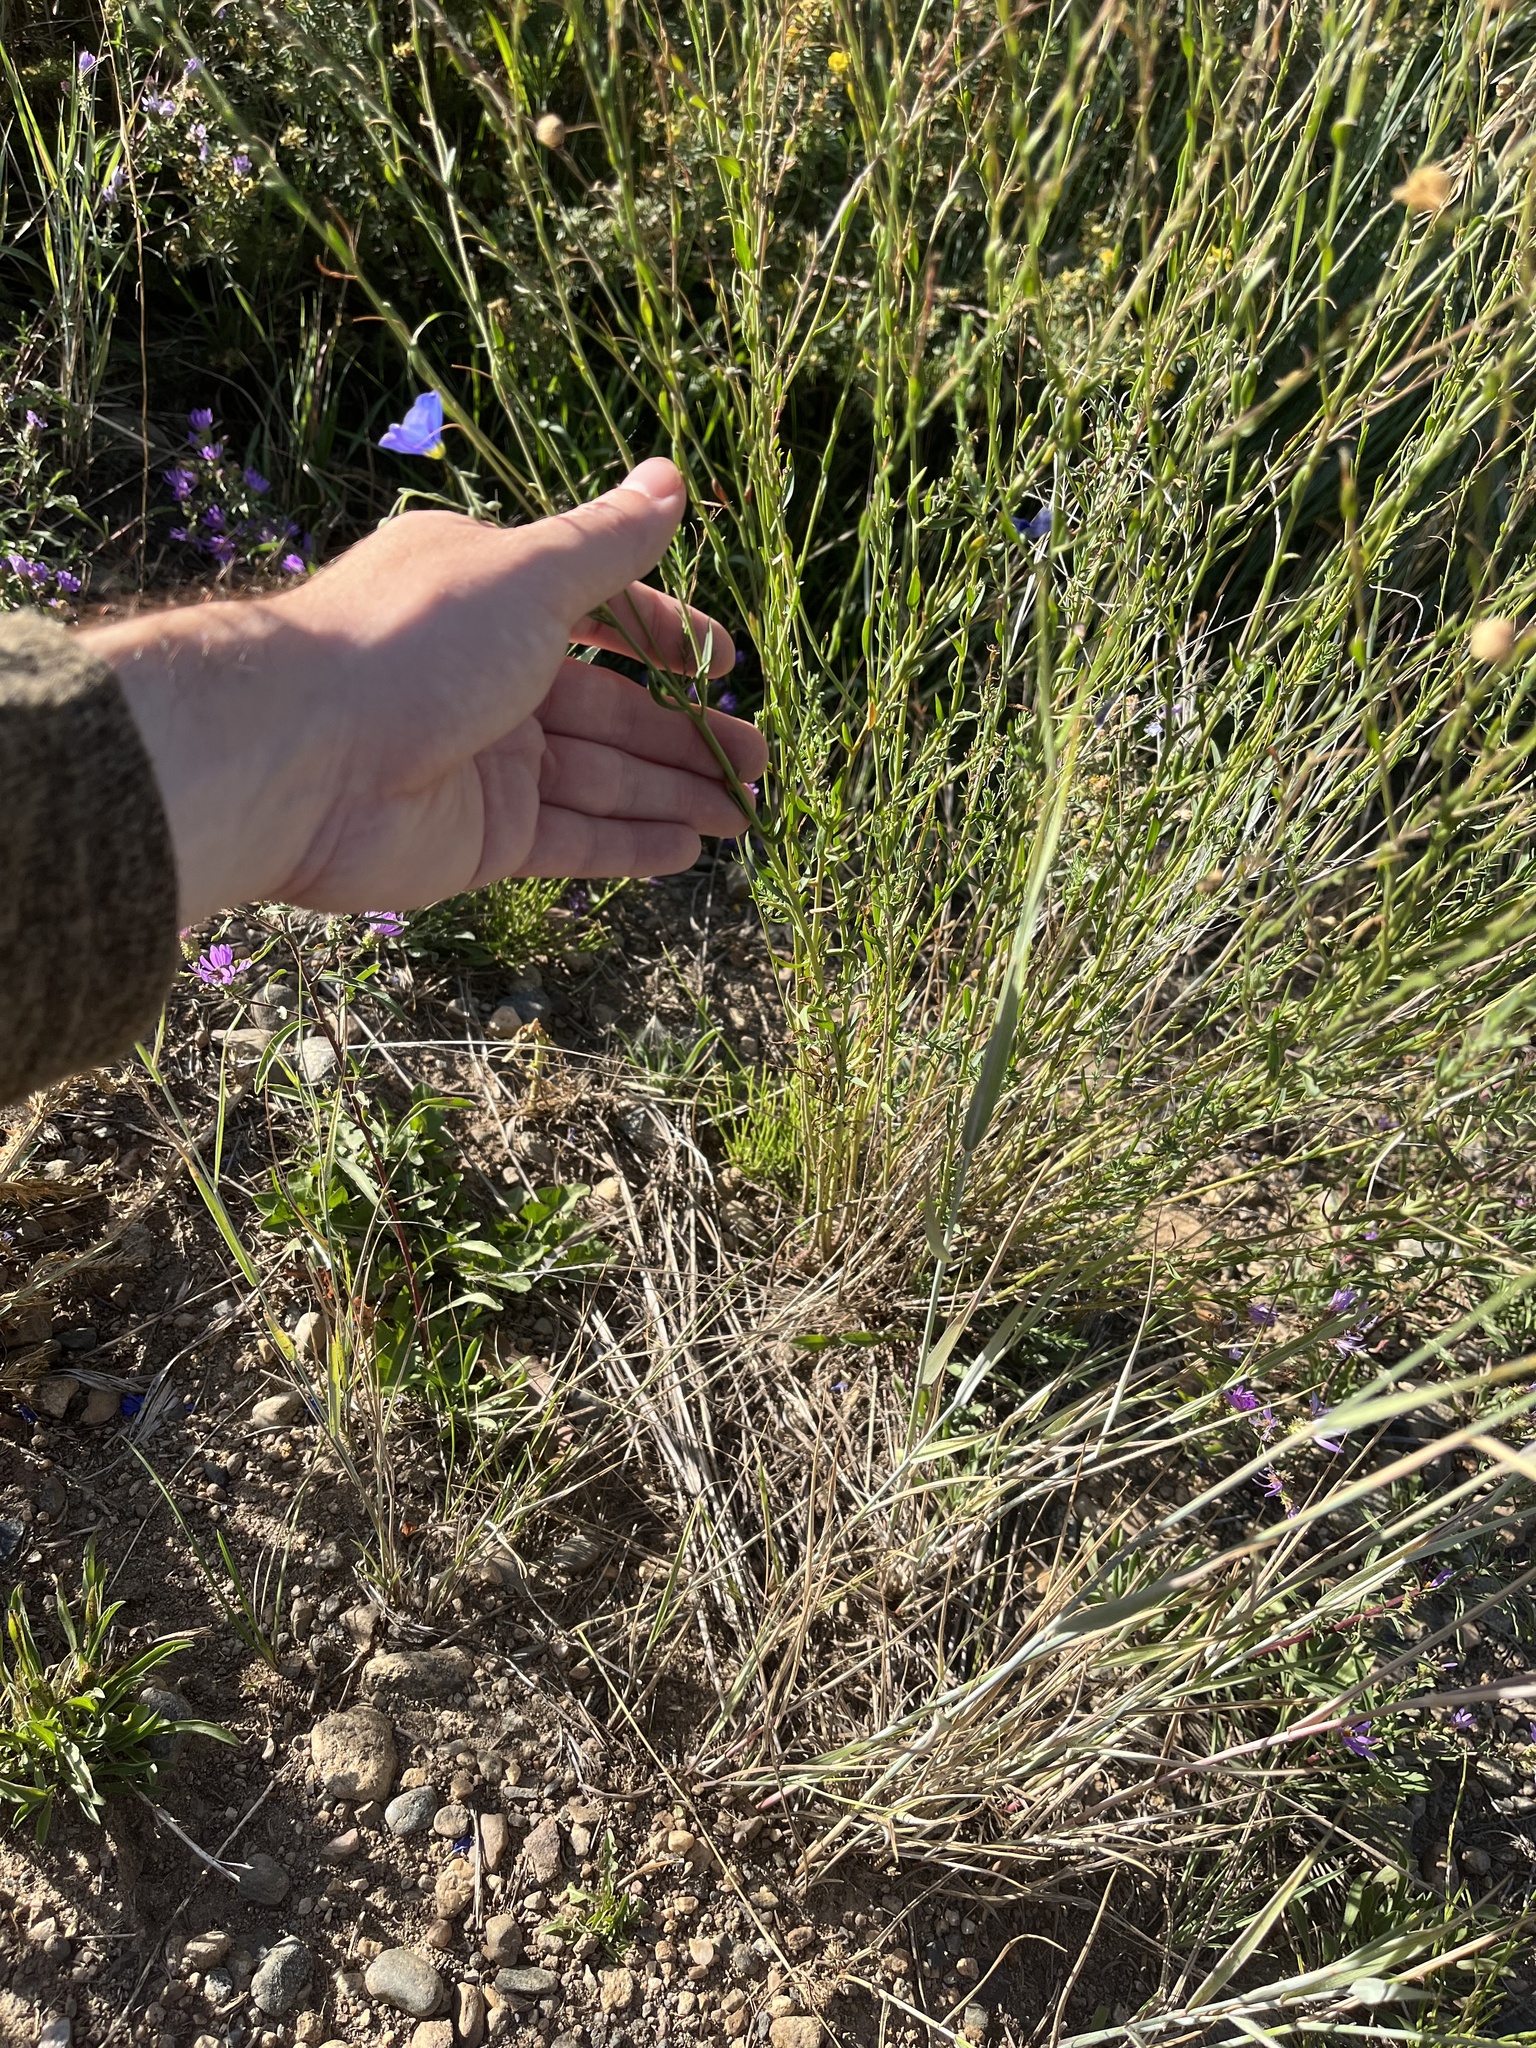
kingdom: Plantae
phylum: Tracheophyta
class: Magnoliopsida
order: Malpighiales
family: Linaceae
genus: Linum
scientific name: Linum lewisii
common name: Prairie flax
